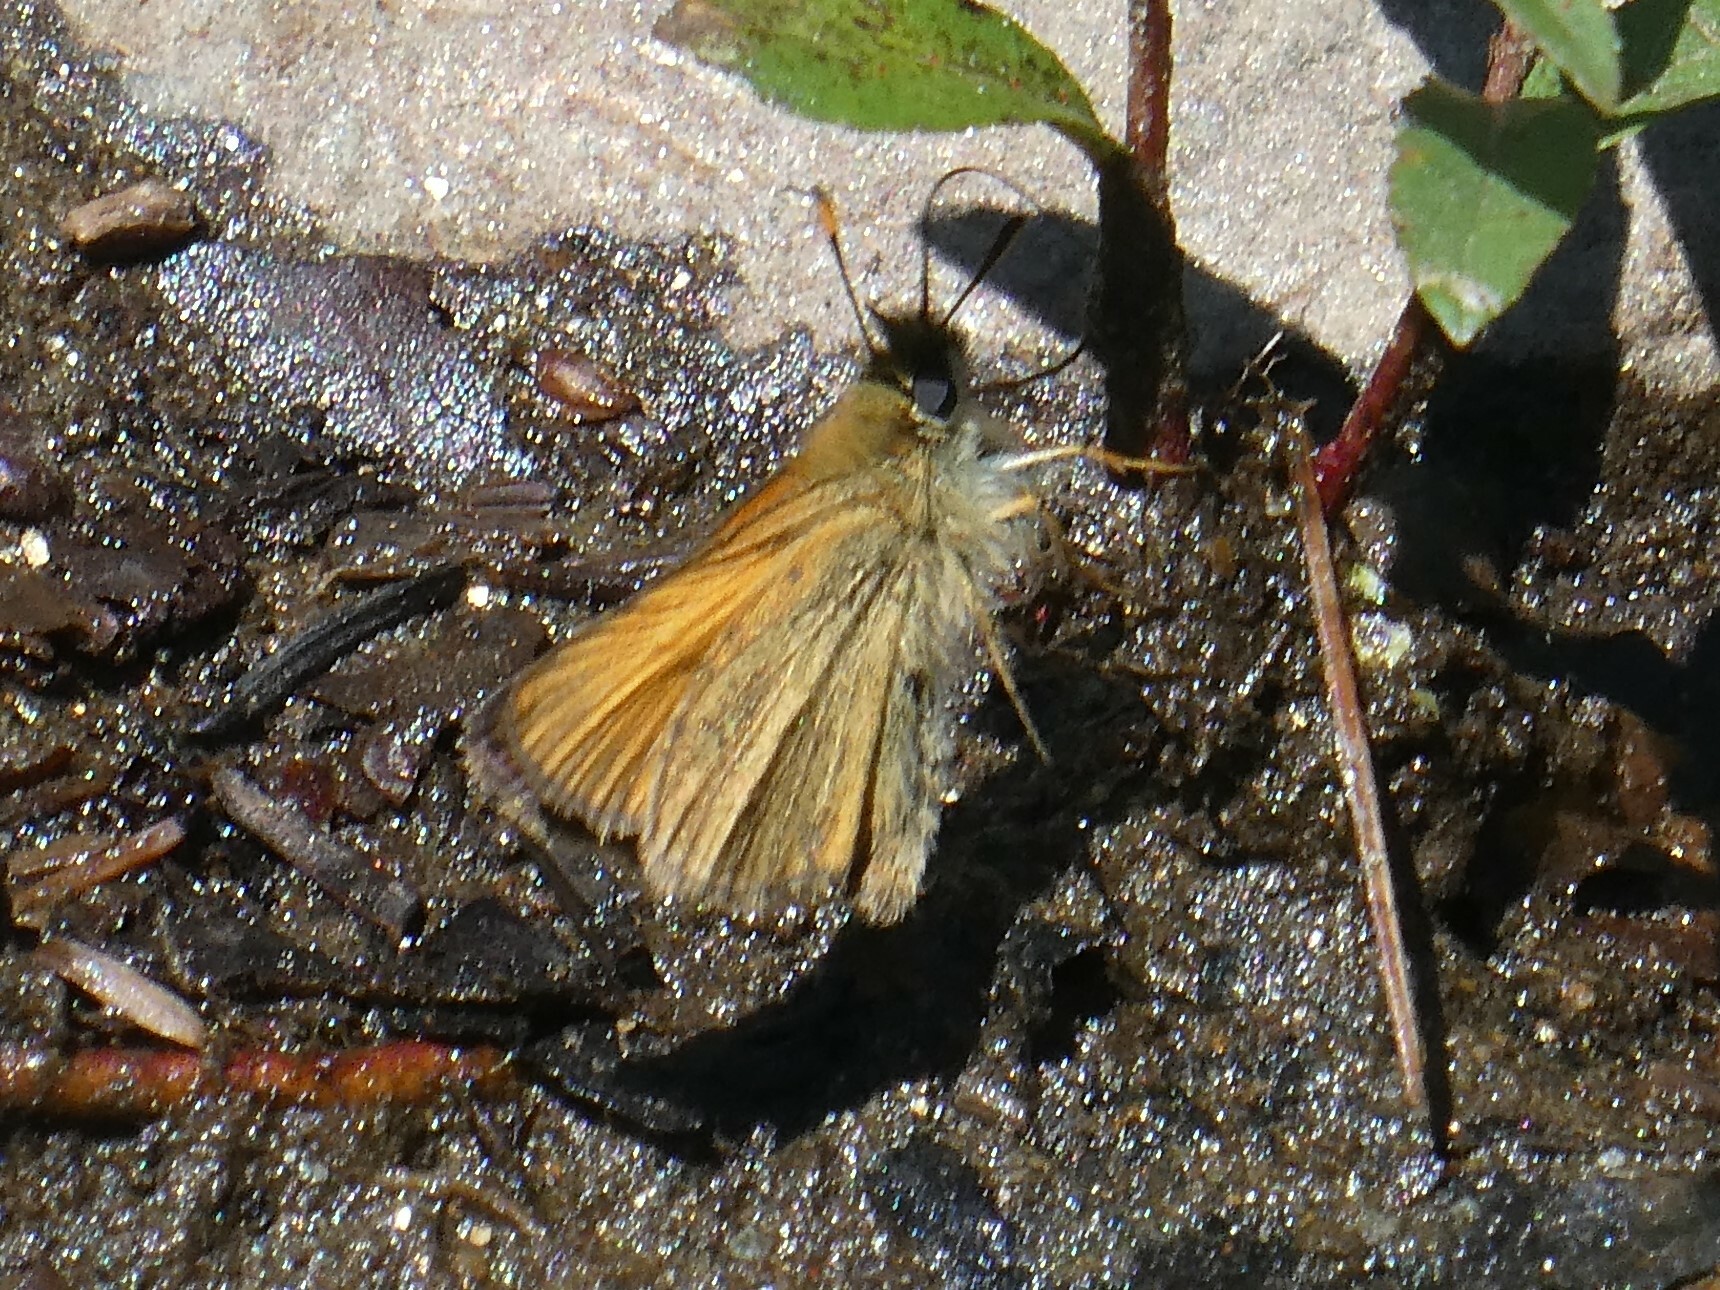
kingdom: Animalia
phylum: Arthropoda
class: Insecta
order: Lepidoptera
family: Hesperiidae
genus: Thymelicus
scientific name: Thymelicus lineola
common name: Essex skipper
